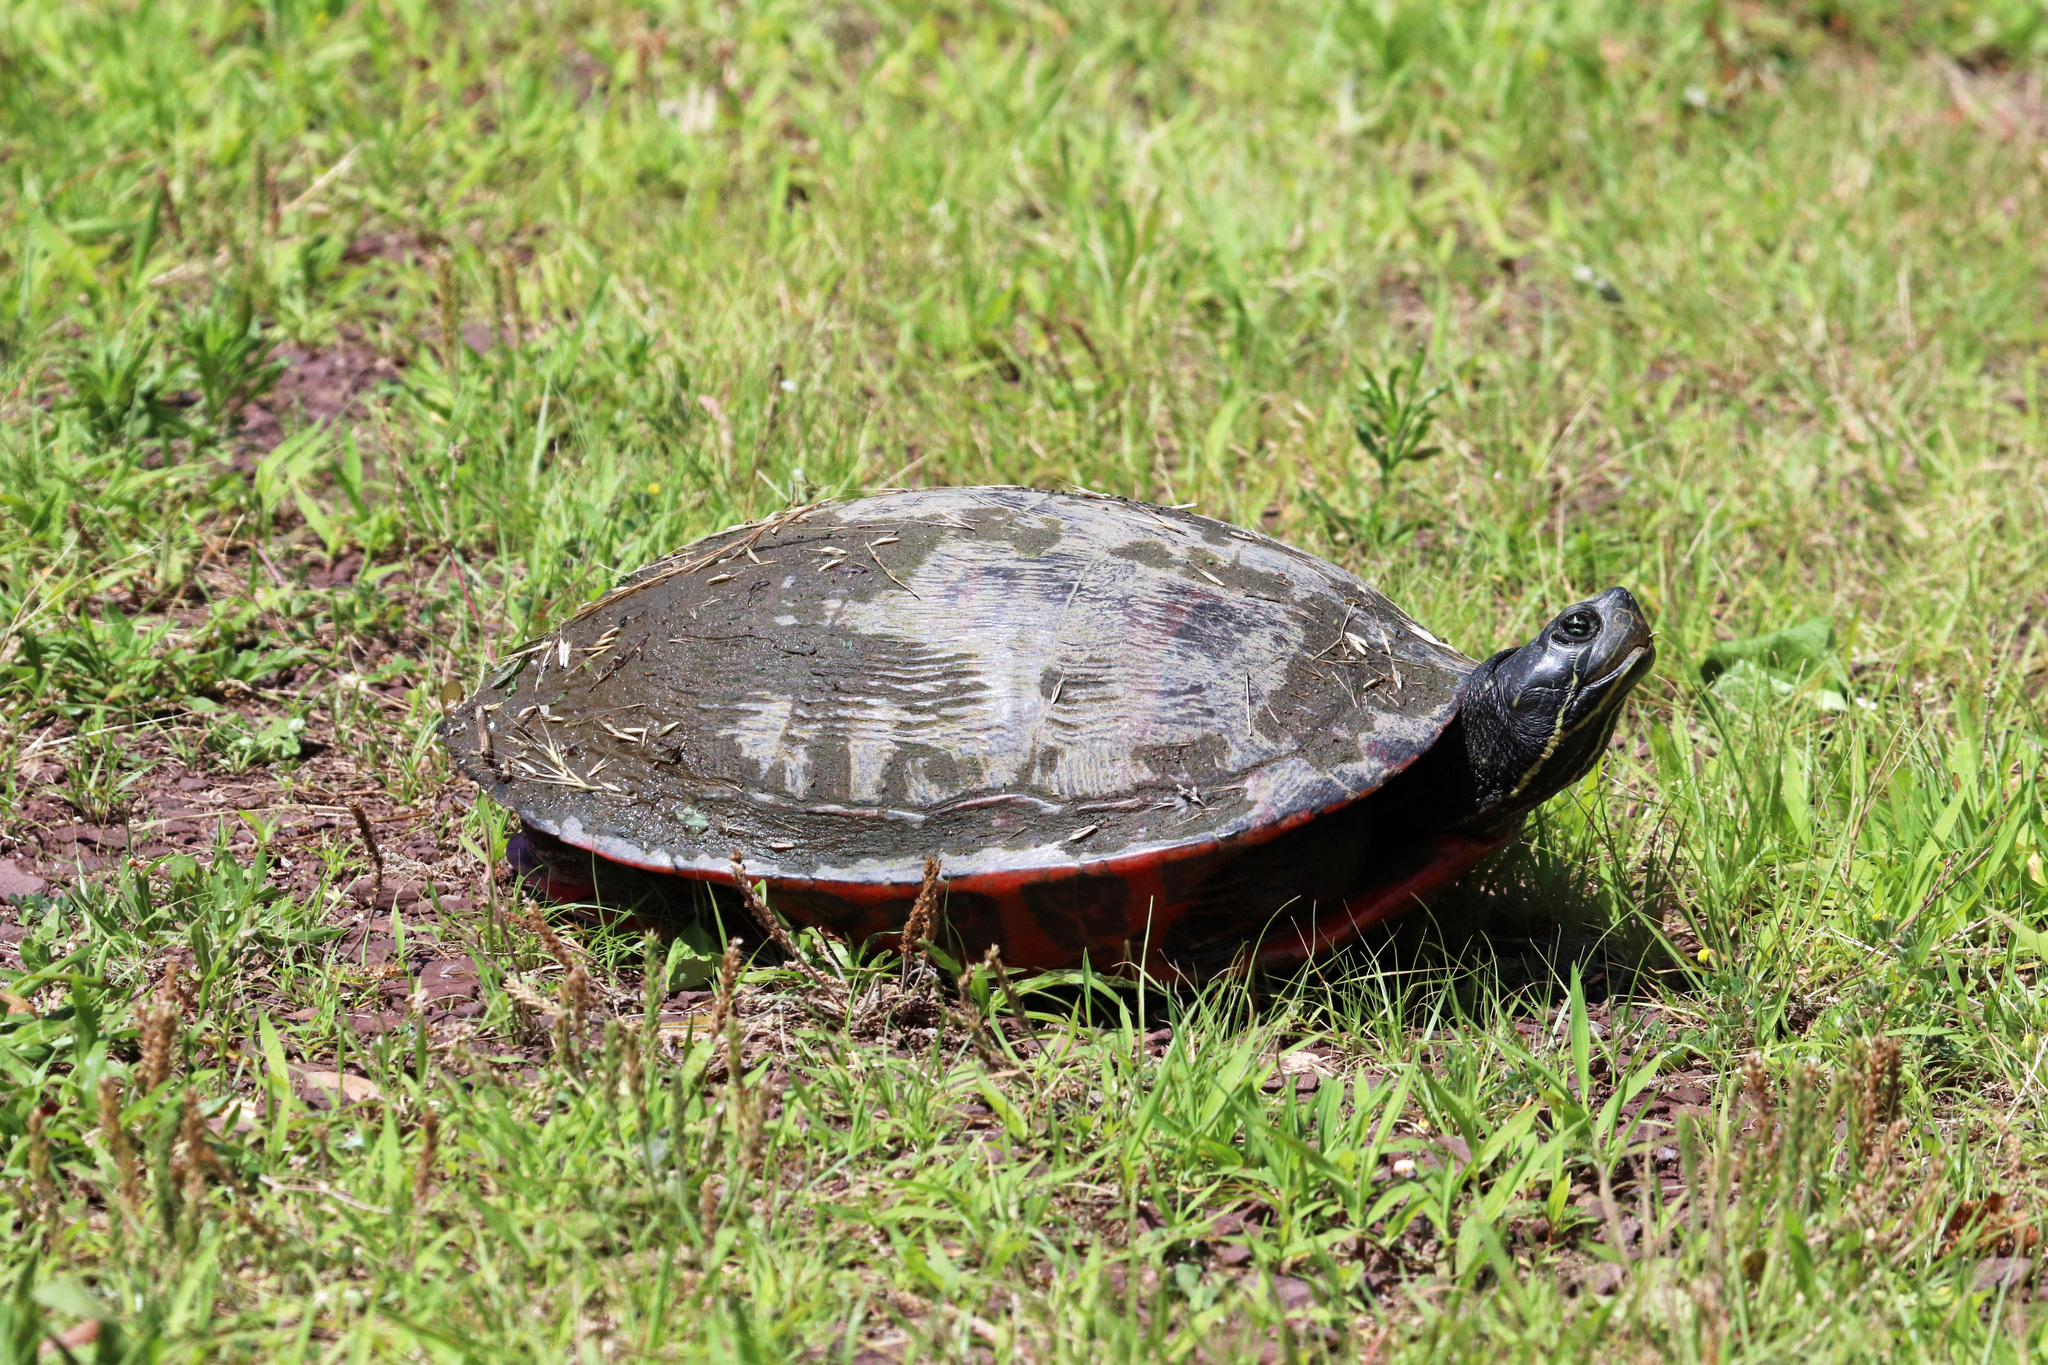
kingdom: Animalia
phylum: Chordata
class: Testudines
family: Emydidae
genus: Pseudemys
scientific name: Pseudemys rubriventris
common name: American red-bellied turtle
